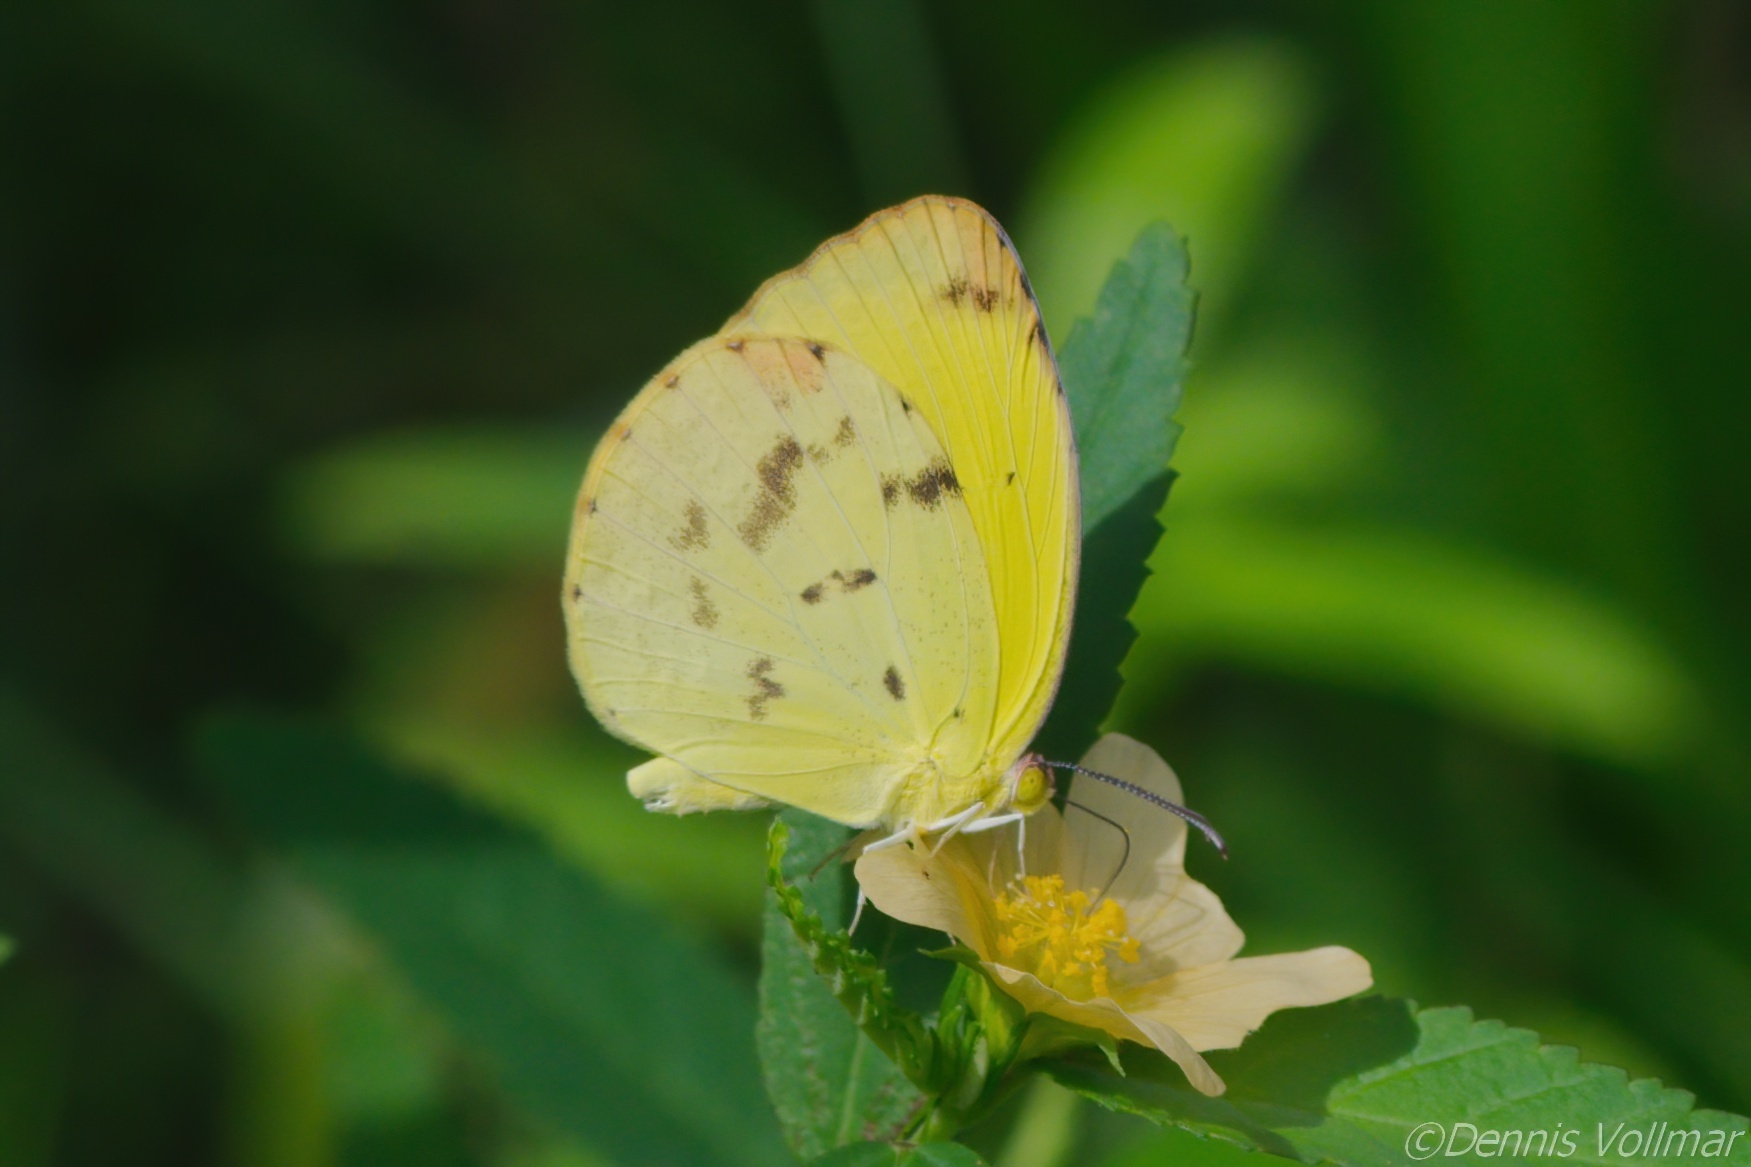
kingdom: Animalia
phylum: Arthropoda
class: Insecta
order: Lepidoptera
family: Pieridae
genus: Pyrisitia
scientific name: Pyrisitia dina
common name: Dina yellow
